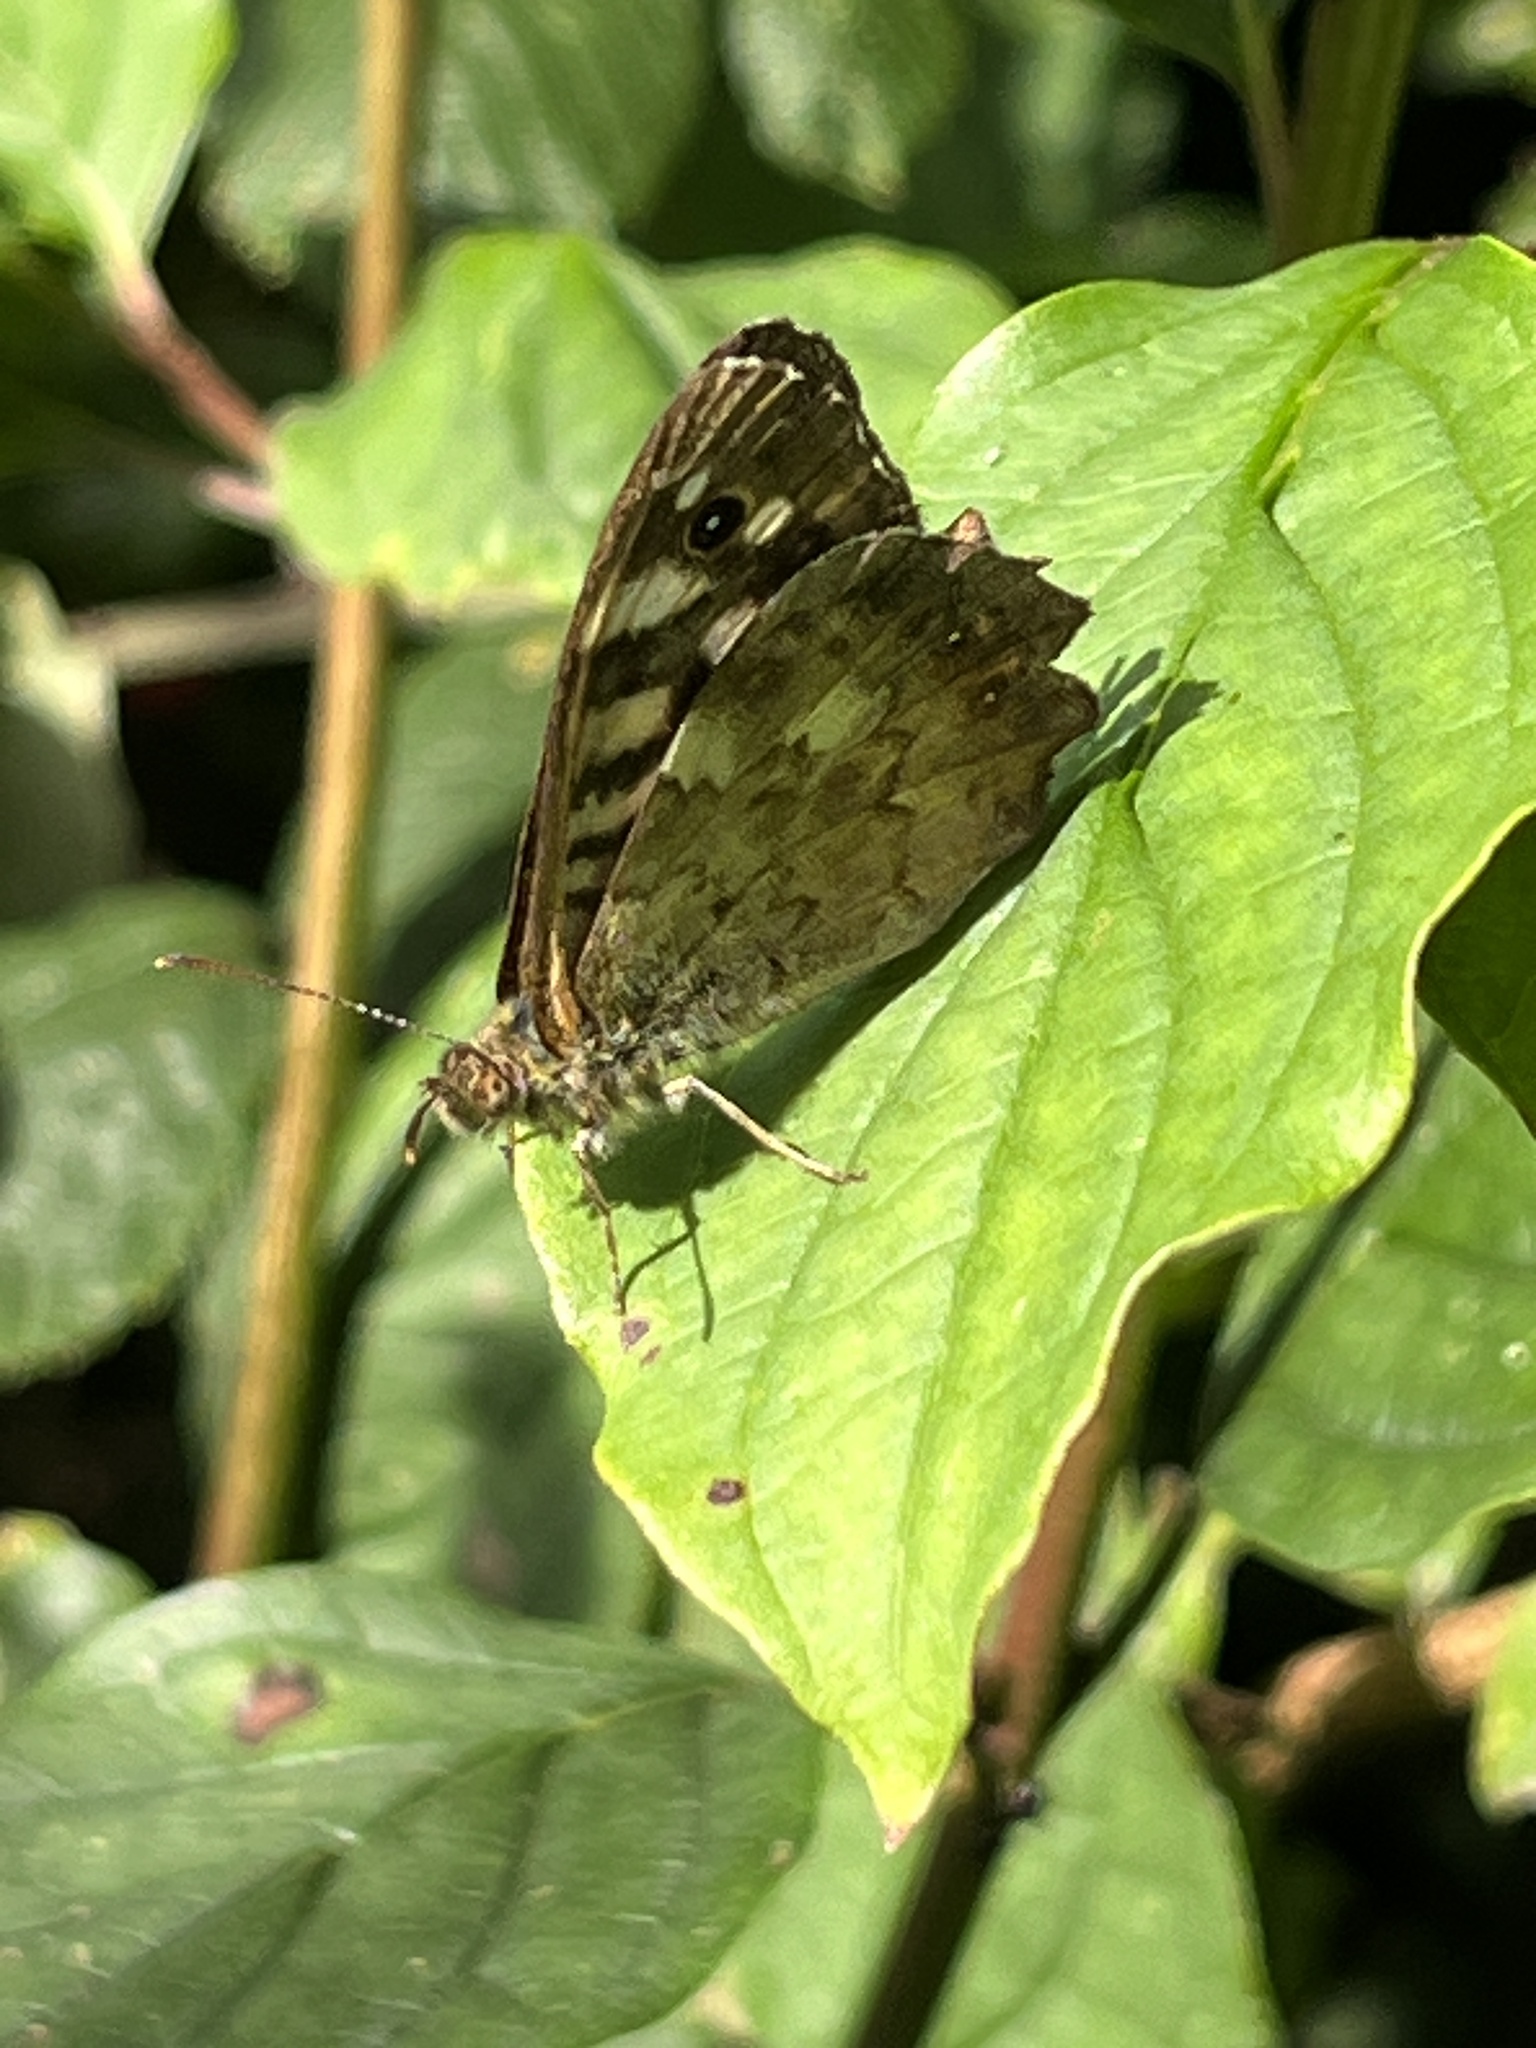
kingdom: Animalia
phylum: Arthropoda
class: Insecta
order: Lepidoptera
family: Nymphalidae
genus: Pararge
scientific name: Pararge aegeria
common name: Speckled wood
